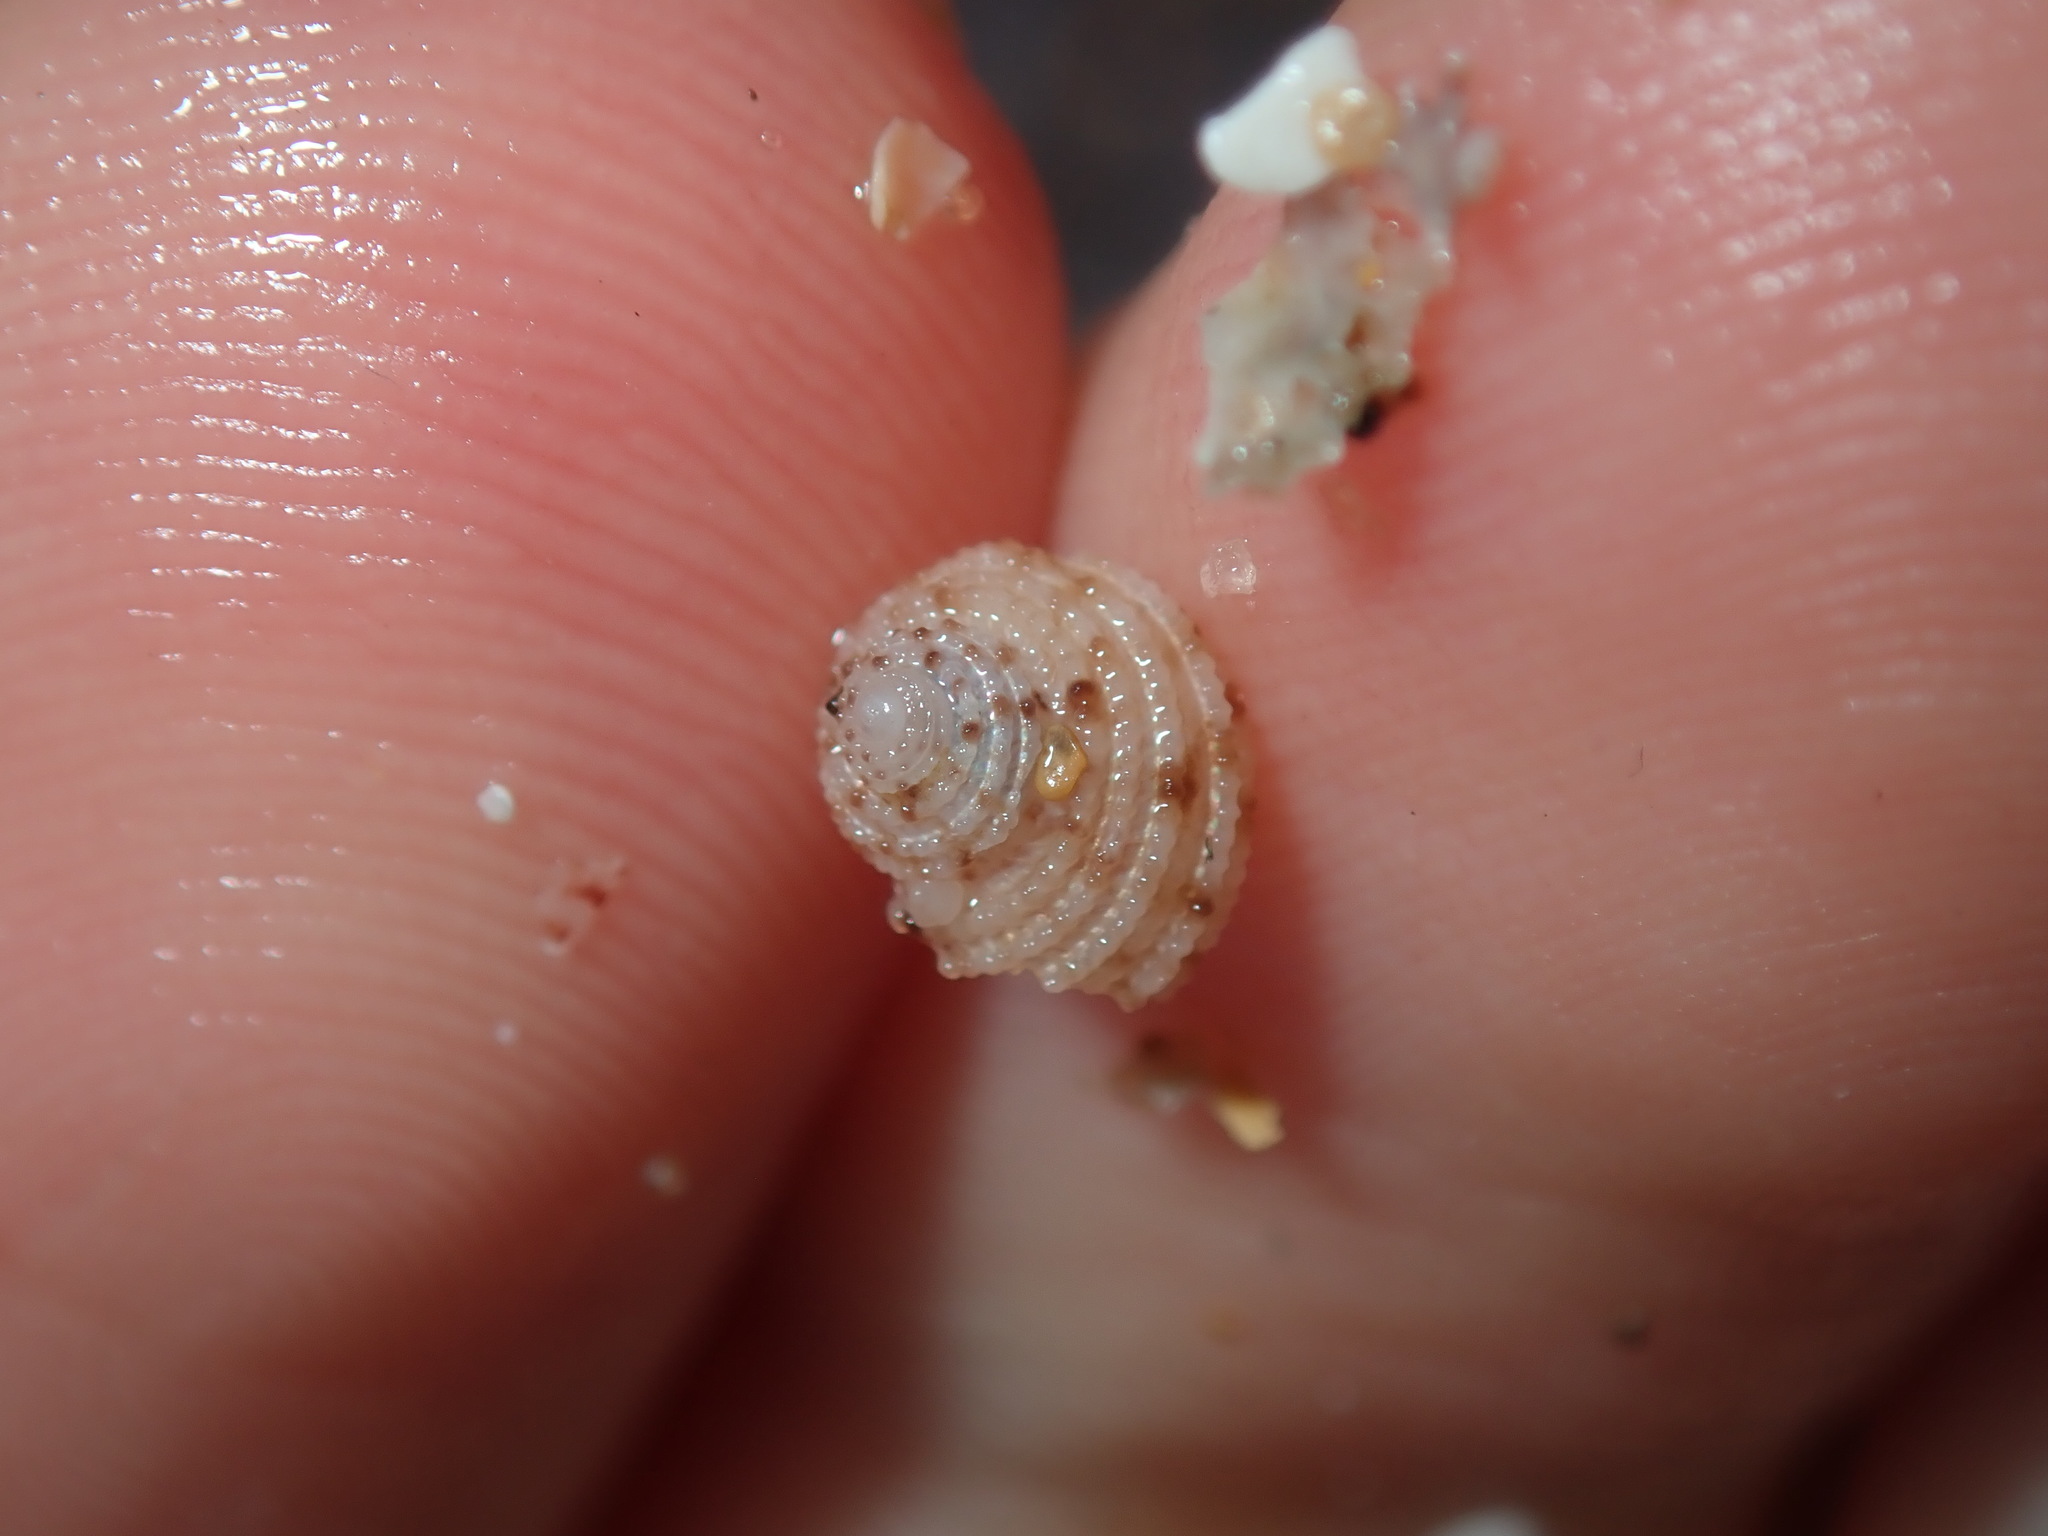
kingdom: Animalia
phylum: Mollusca
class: Gastropoda
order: Seguenziida
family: Chilodontaidae
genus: Vaceuchelus
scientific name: Vaceuchelus ampullus
